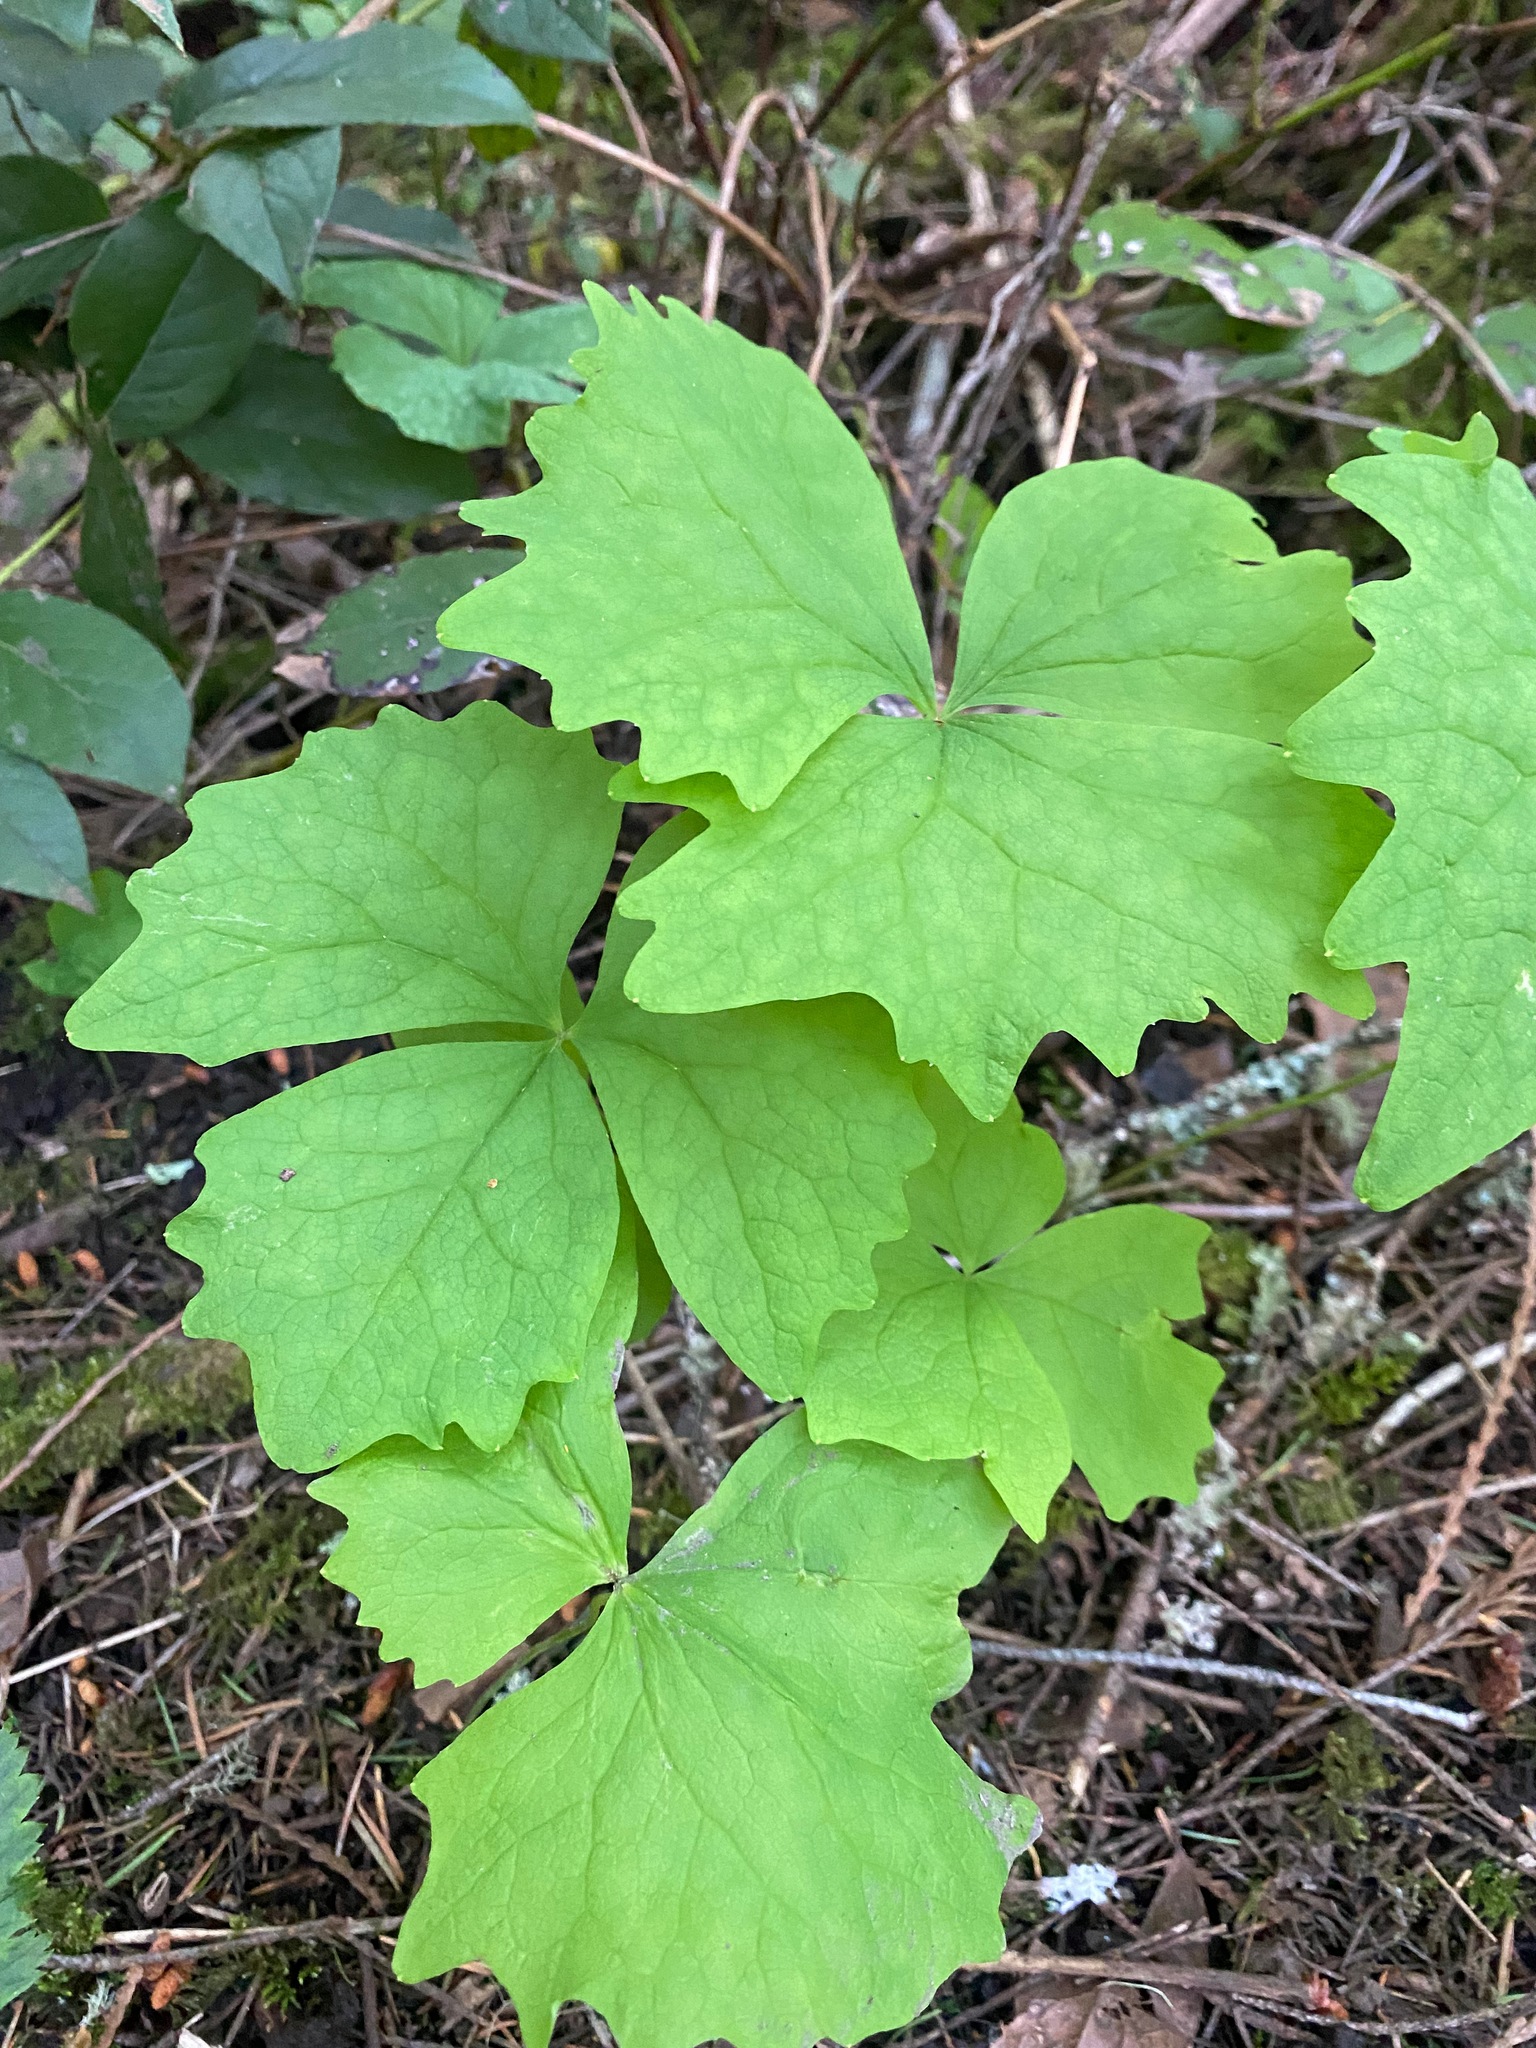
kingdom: Plantae
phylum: Tracheophyta
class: Magnoliopsida
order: Ranunculales
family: Berberidaceae
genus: Achlys
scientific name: Achlys triphylla
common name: Vanilla-leaf
